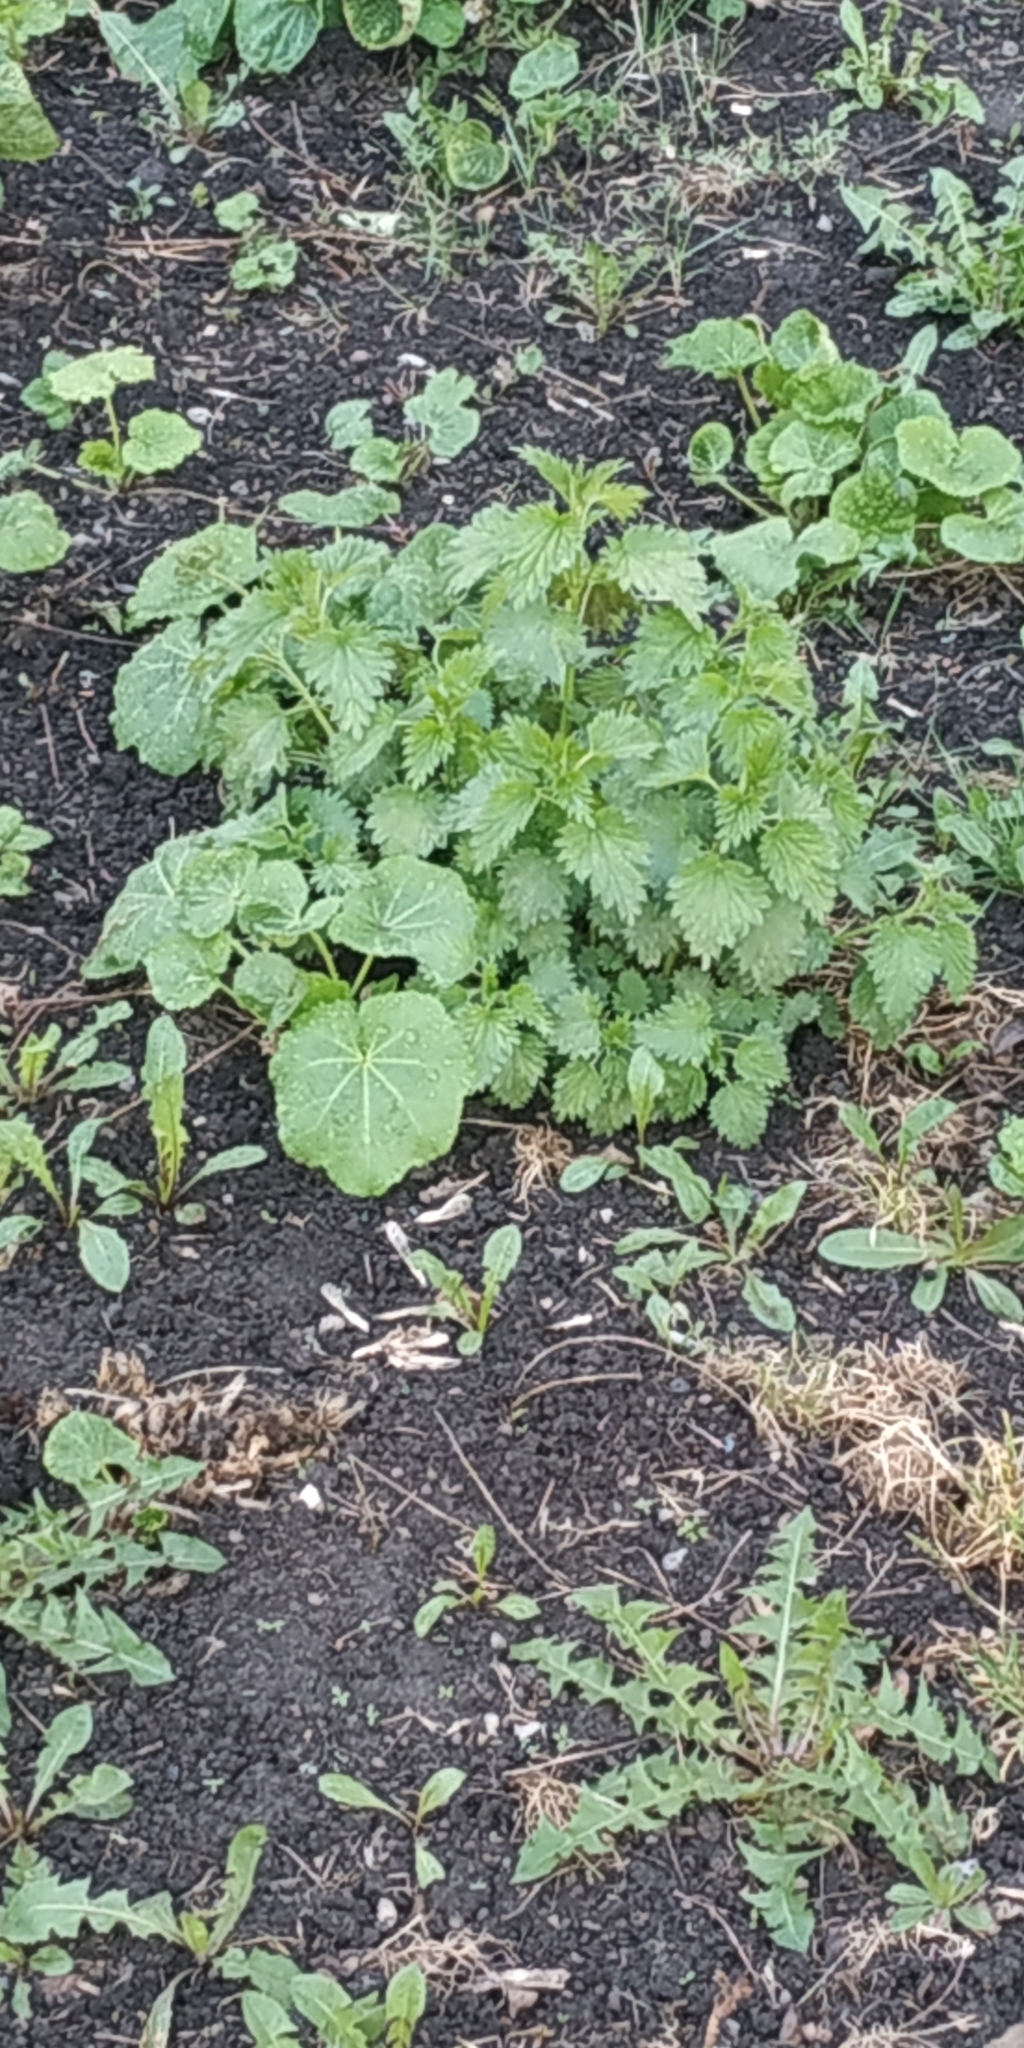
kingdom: Plantae
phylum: Tracheophyta
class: Magnoliopsida
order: Rosales
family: Urticaceae
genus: Urtica
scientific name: Urtica dioica
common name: Common nettle
